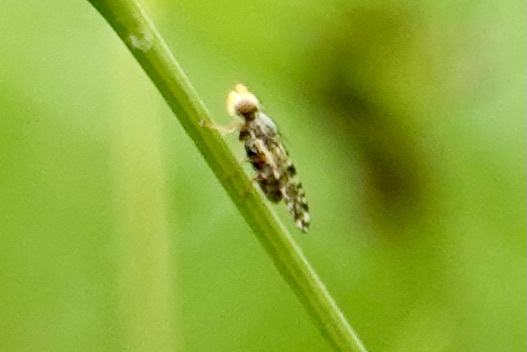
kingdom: Animalia
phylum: Arthropoda
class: Insecta
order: Diptera
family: Tephritidae
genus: Dioxyna
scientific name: Dioxyna picciola
